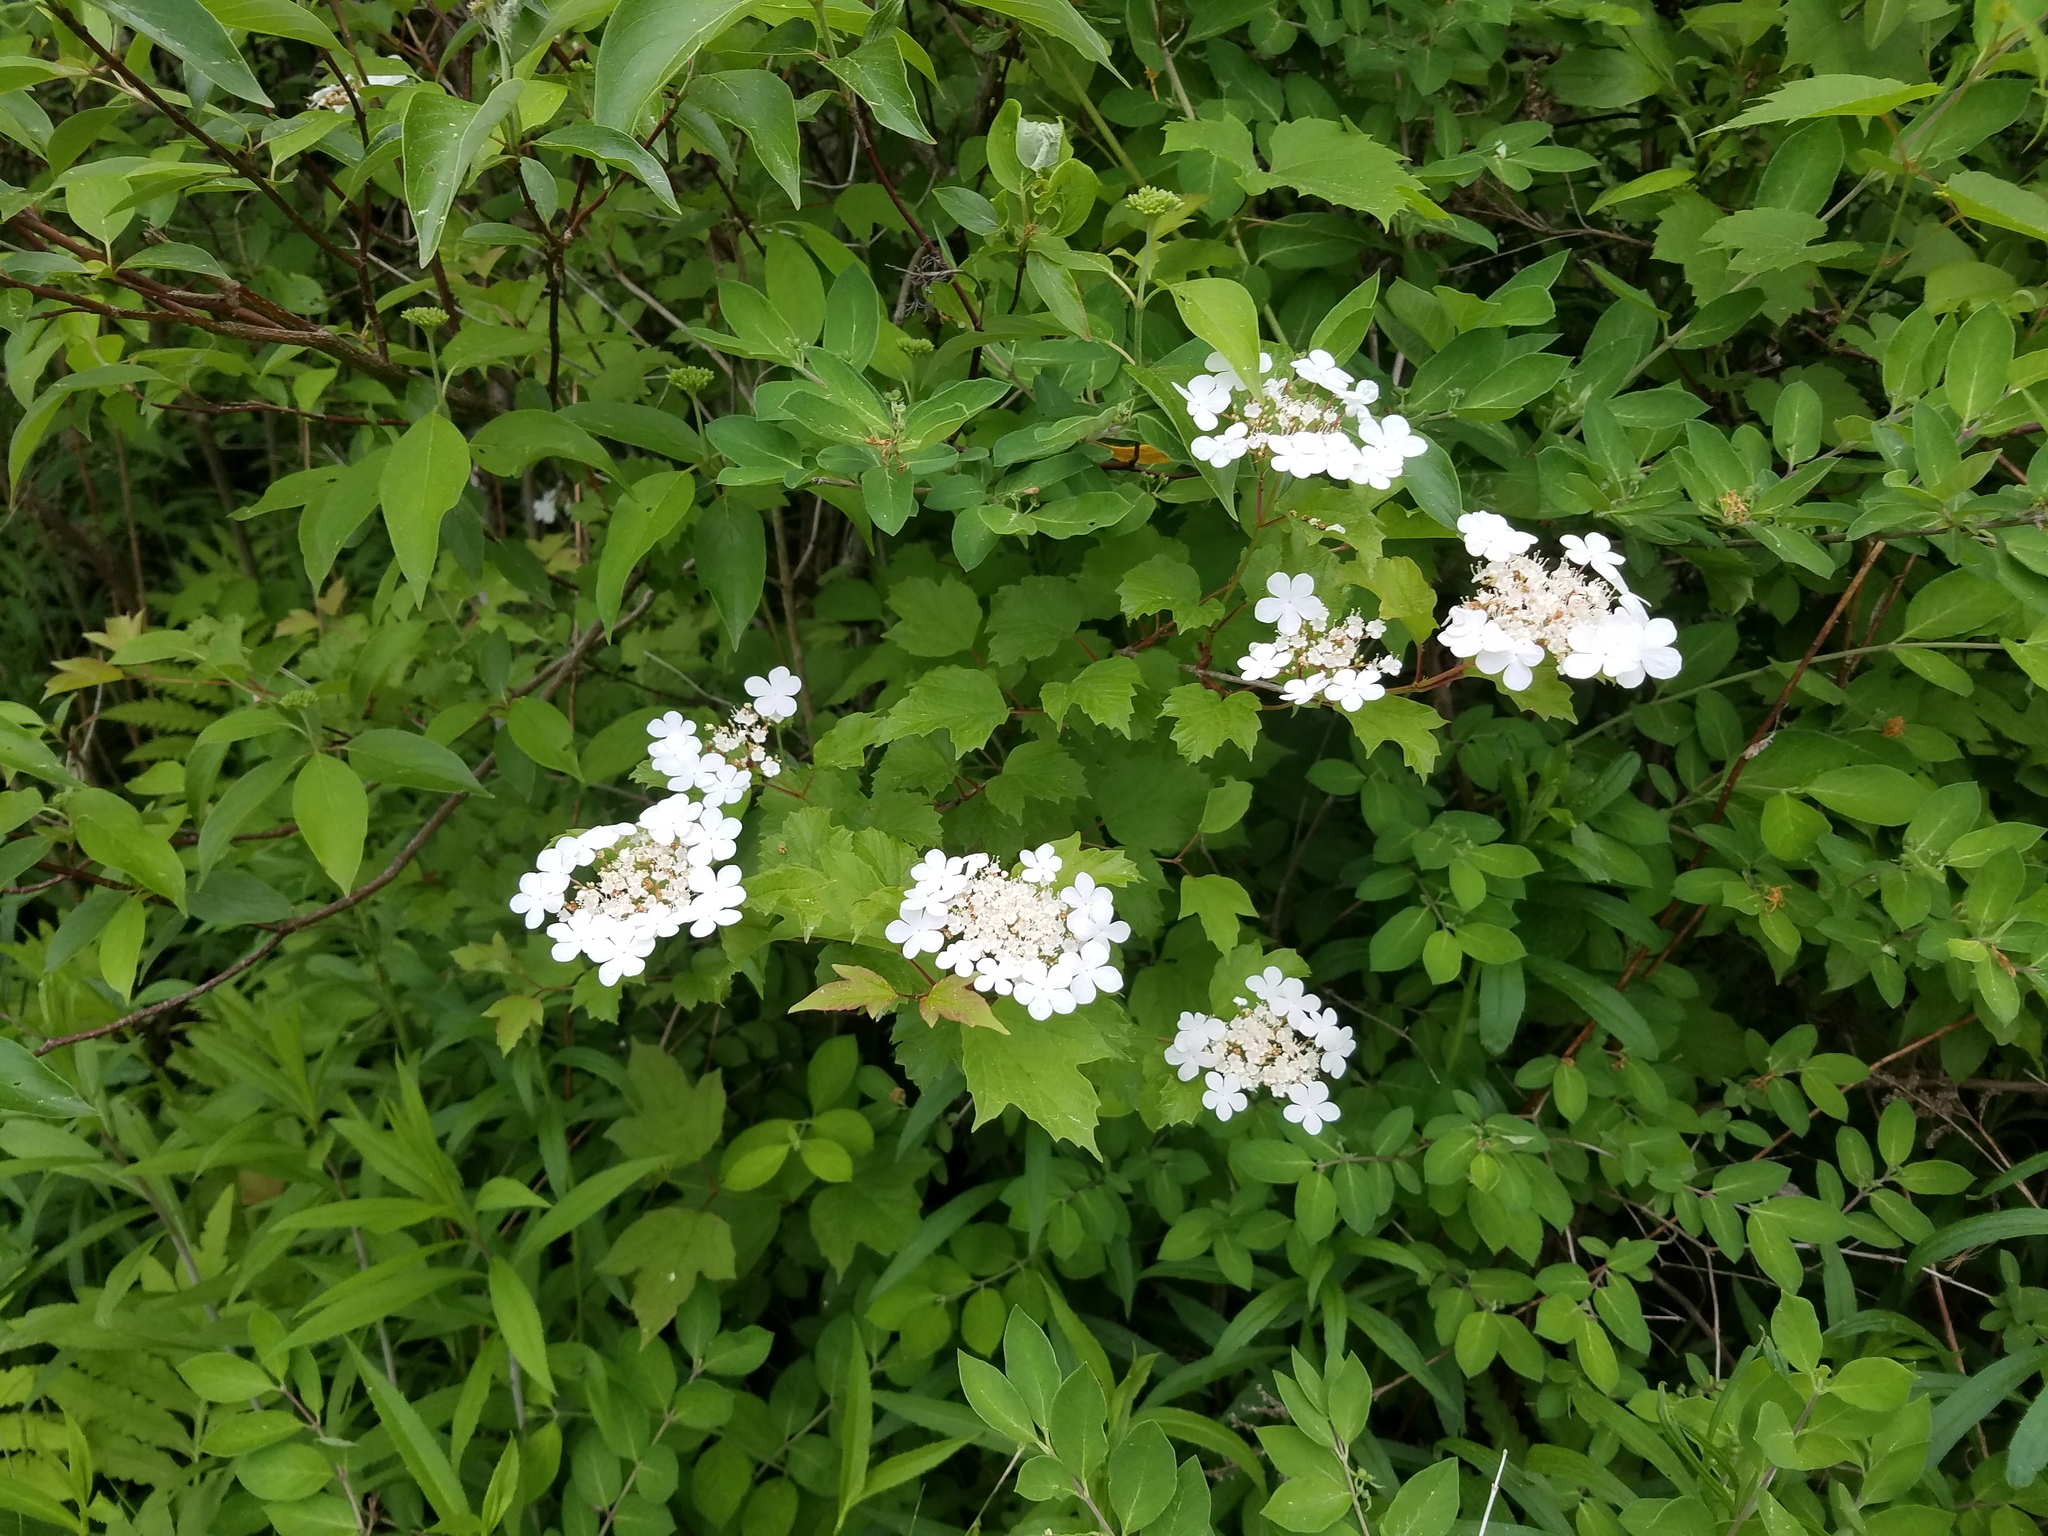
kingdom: Plantae
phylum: Tracheophyta
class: Magnoliopsida
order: Dipsacales
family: Viburnaceae
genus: Viburnum
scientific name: Viburnum opulus
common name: Guelder-rose
